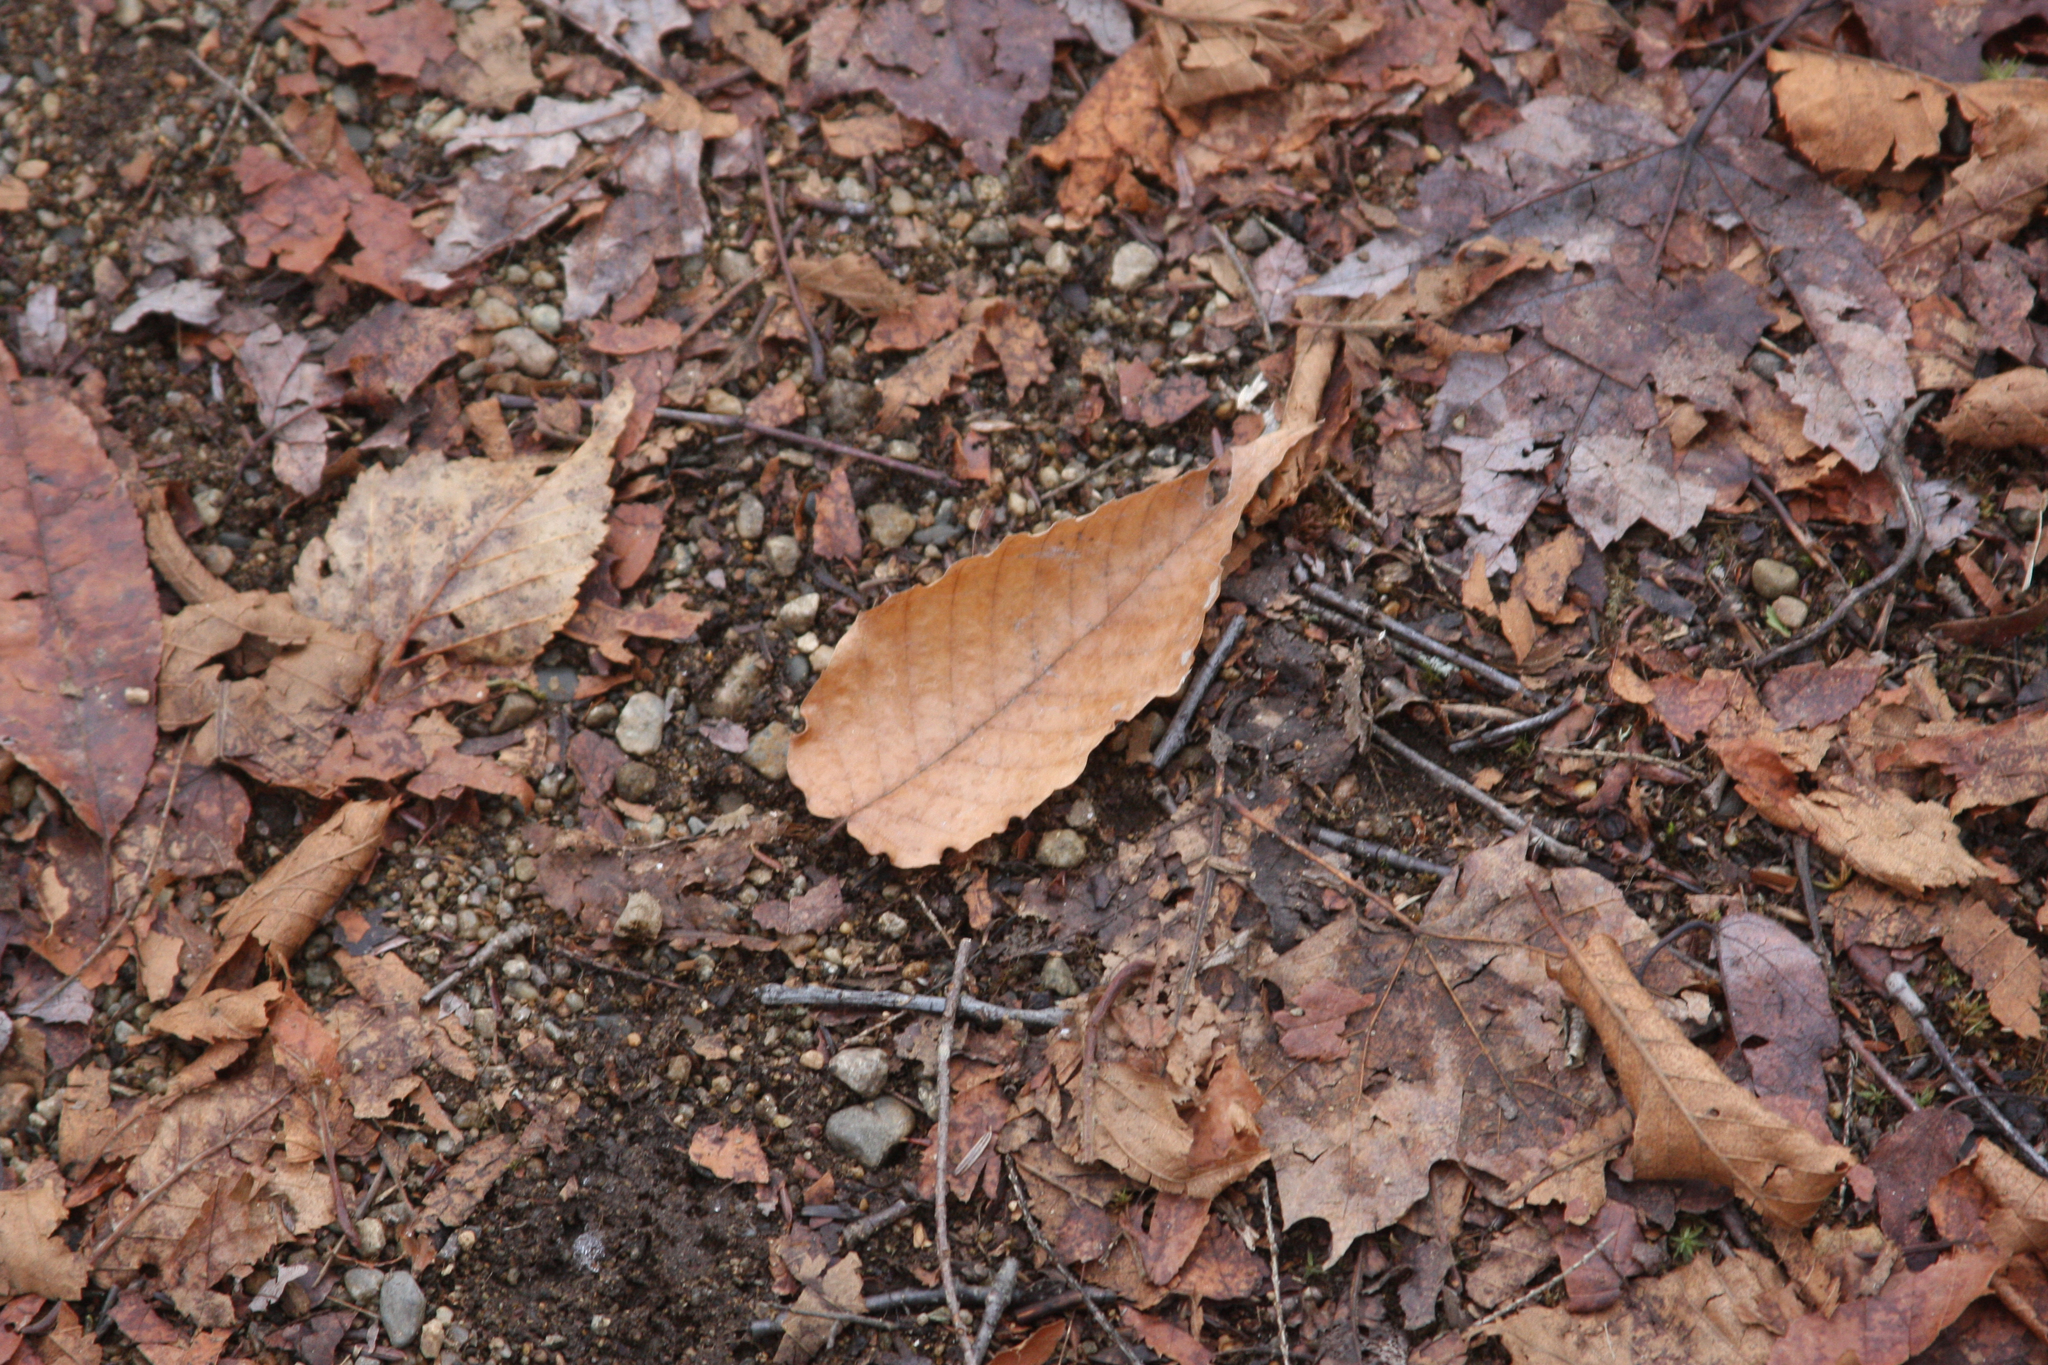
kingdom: Plantae
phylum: Tracheophyta
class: Magnoliopsida
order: Fagales
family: Fagaceae
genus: Fagus
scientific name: Fagus grandifolia
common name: American beech
